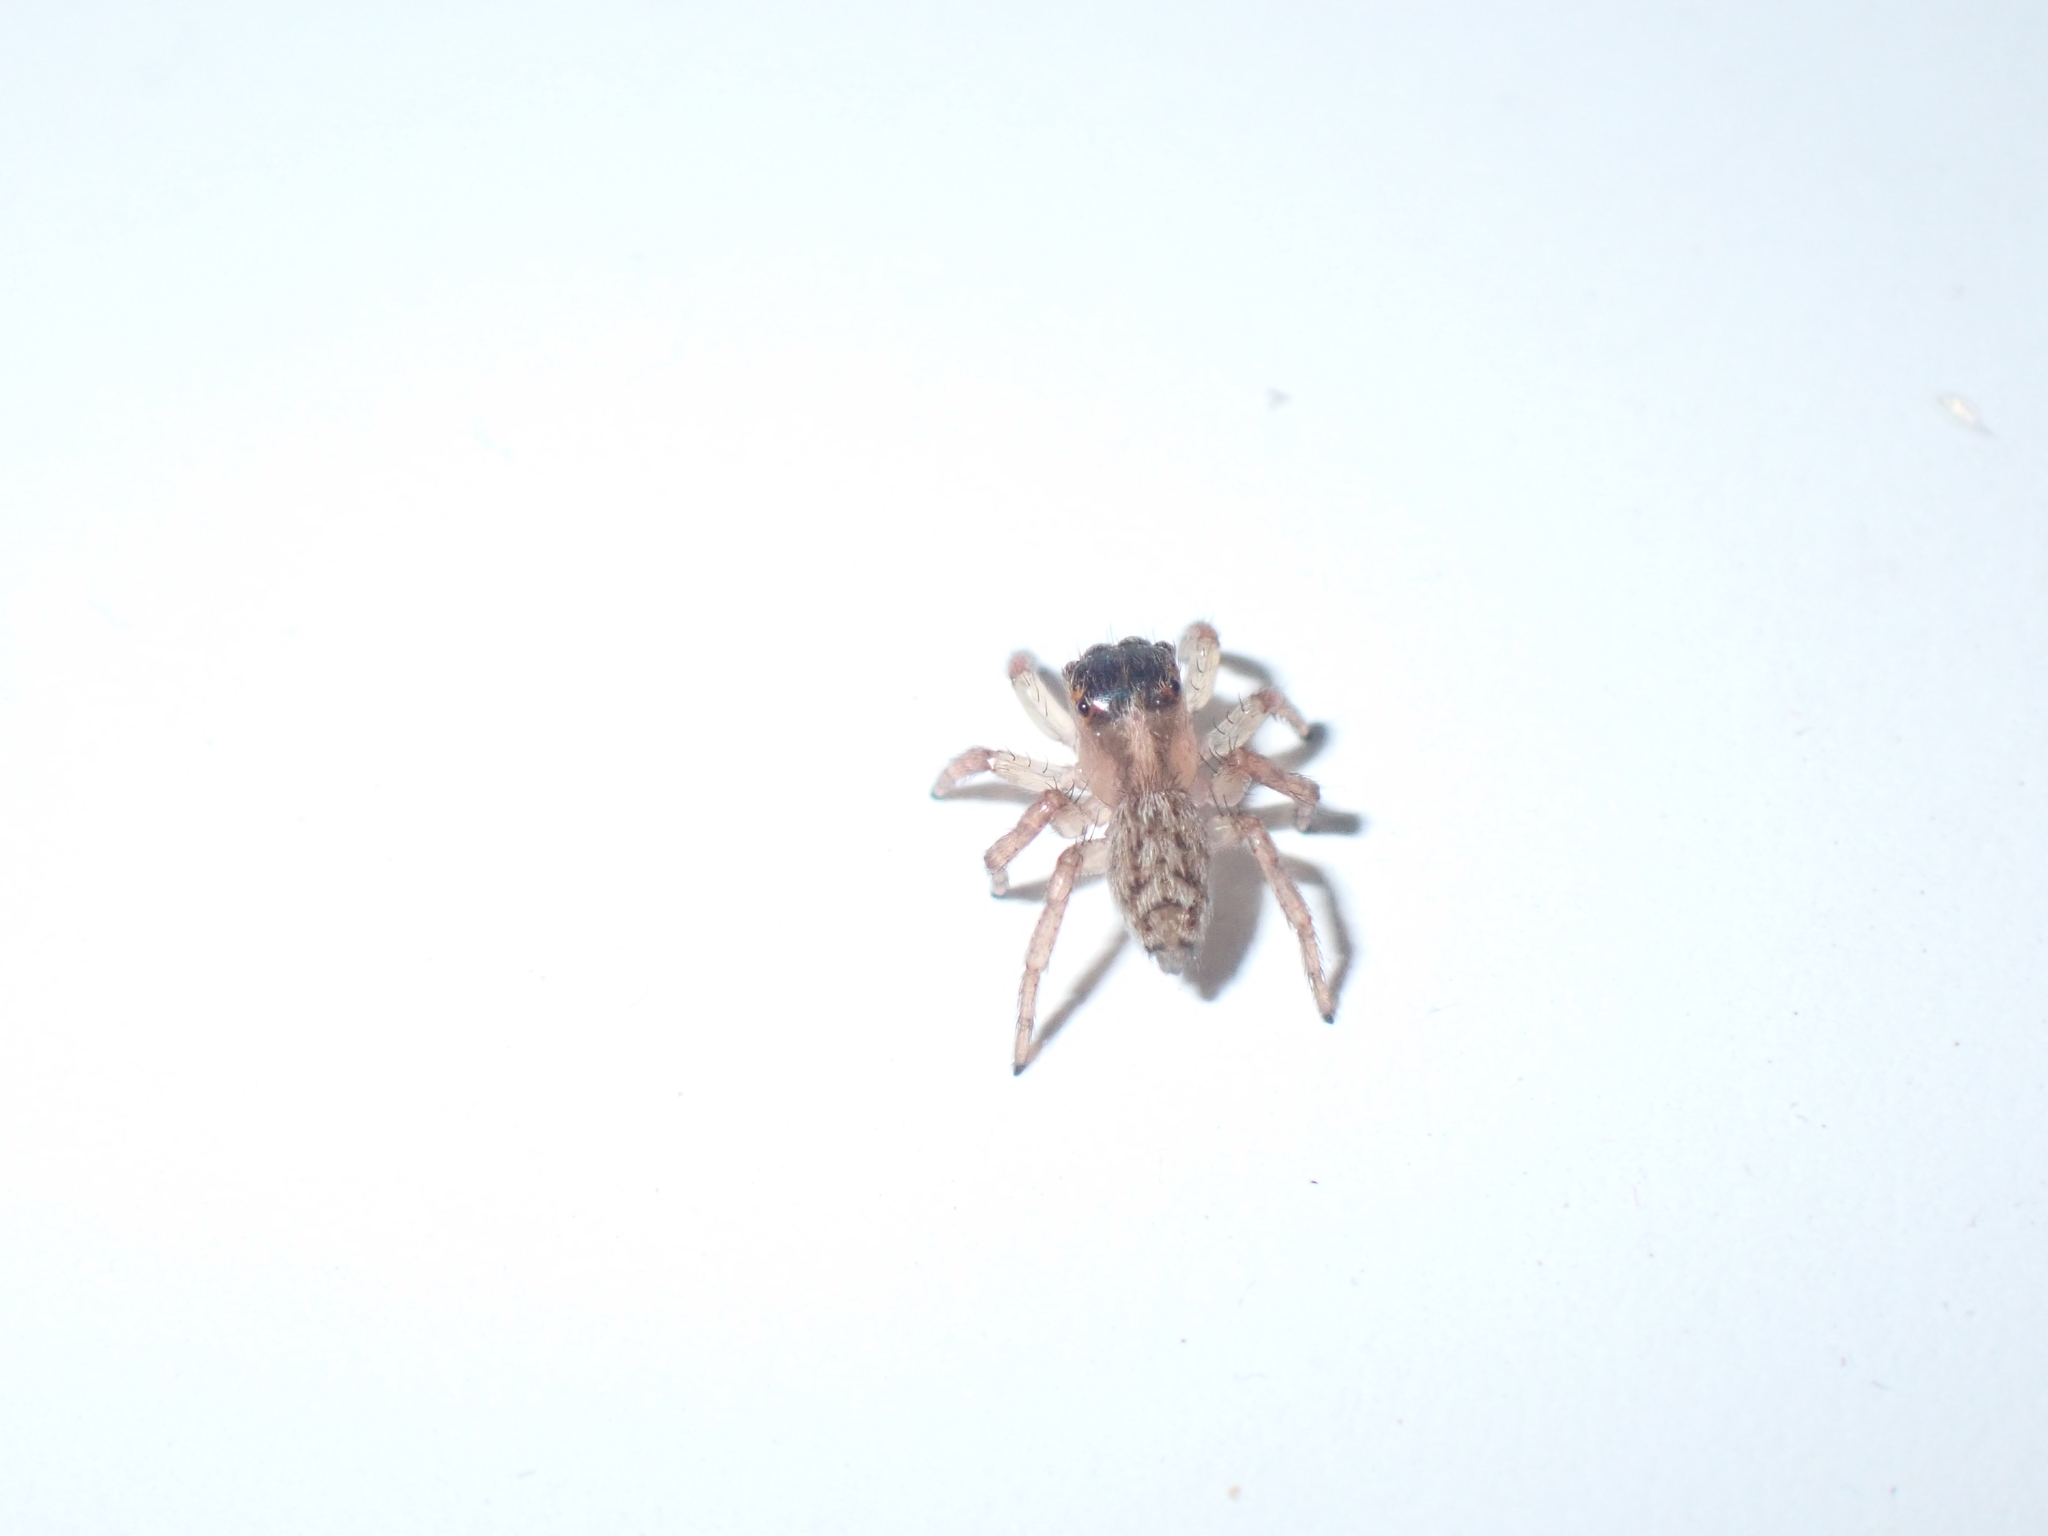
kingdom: Animalia
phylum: Arthropoda
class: Arachnida
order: Araneae
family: Salticidae
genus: Saitis
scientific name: Saitis barbipes
